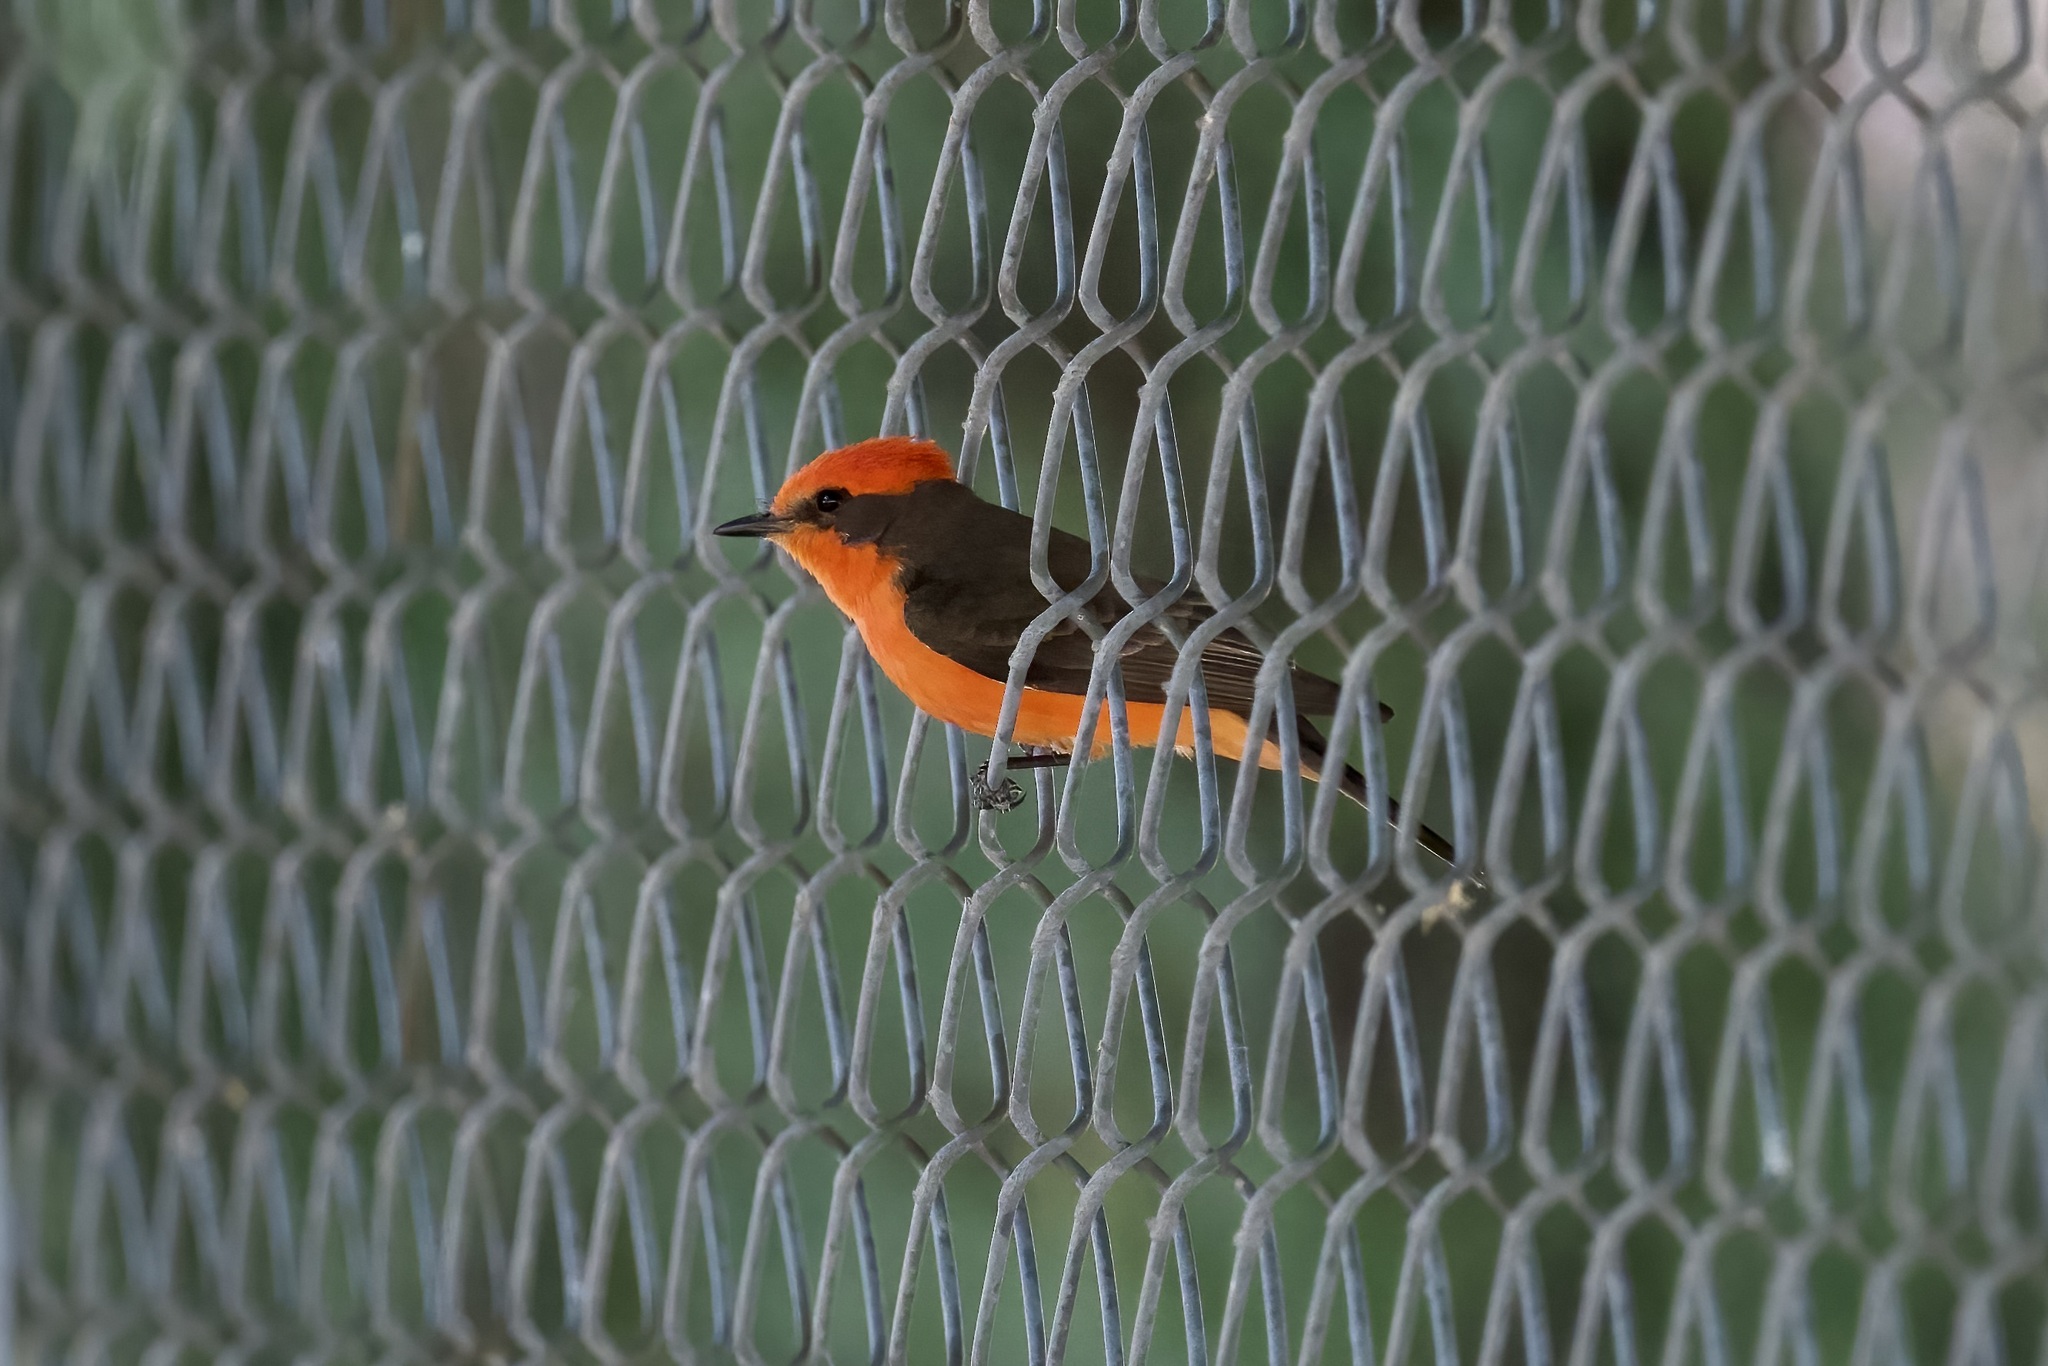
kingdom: Animalia
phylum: Chordata
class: Aves
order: Passeriformes
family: Tyrannidae
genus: Pyrocephalus
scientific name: Pyrocephalus rubinus
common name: Vermilion flycatcher
